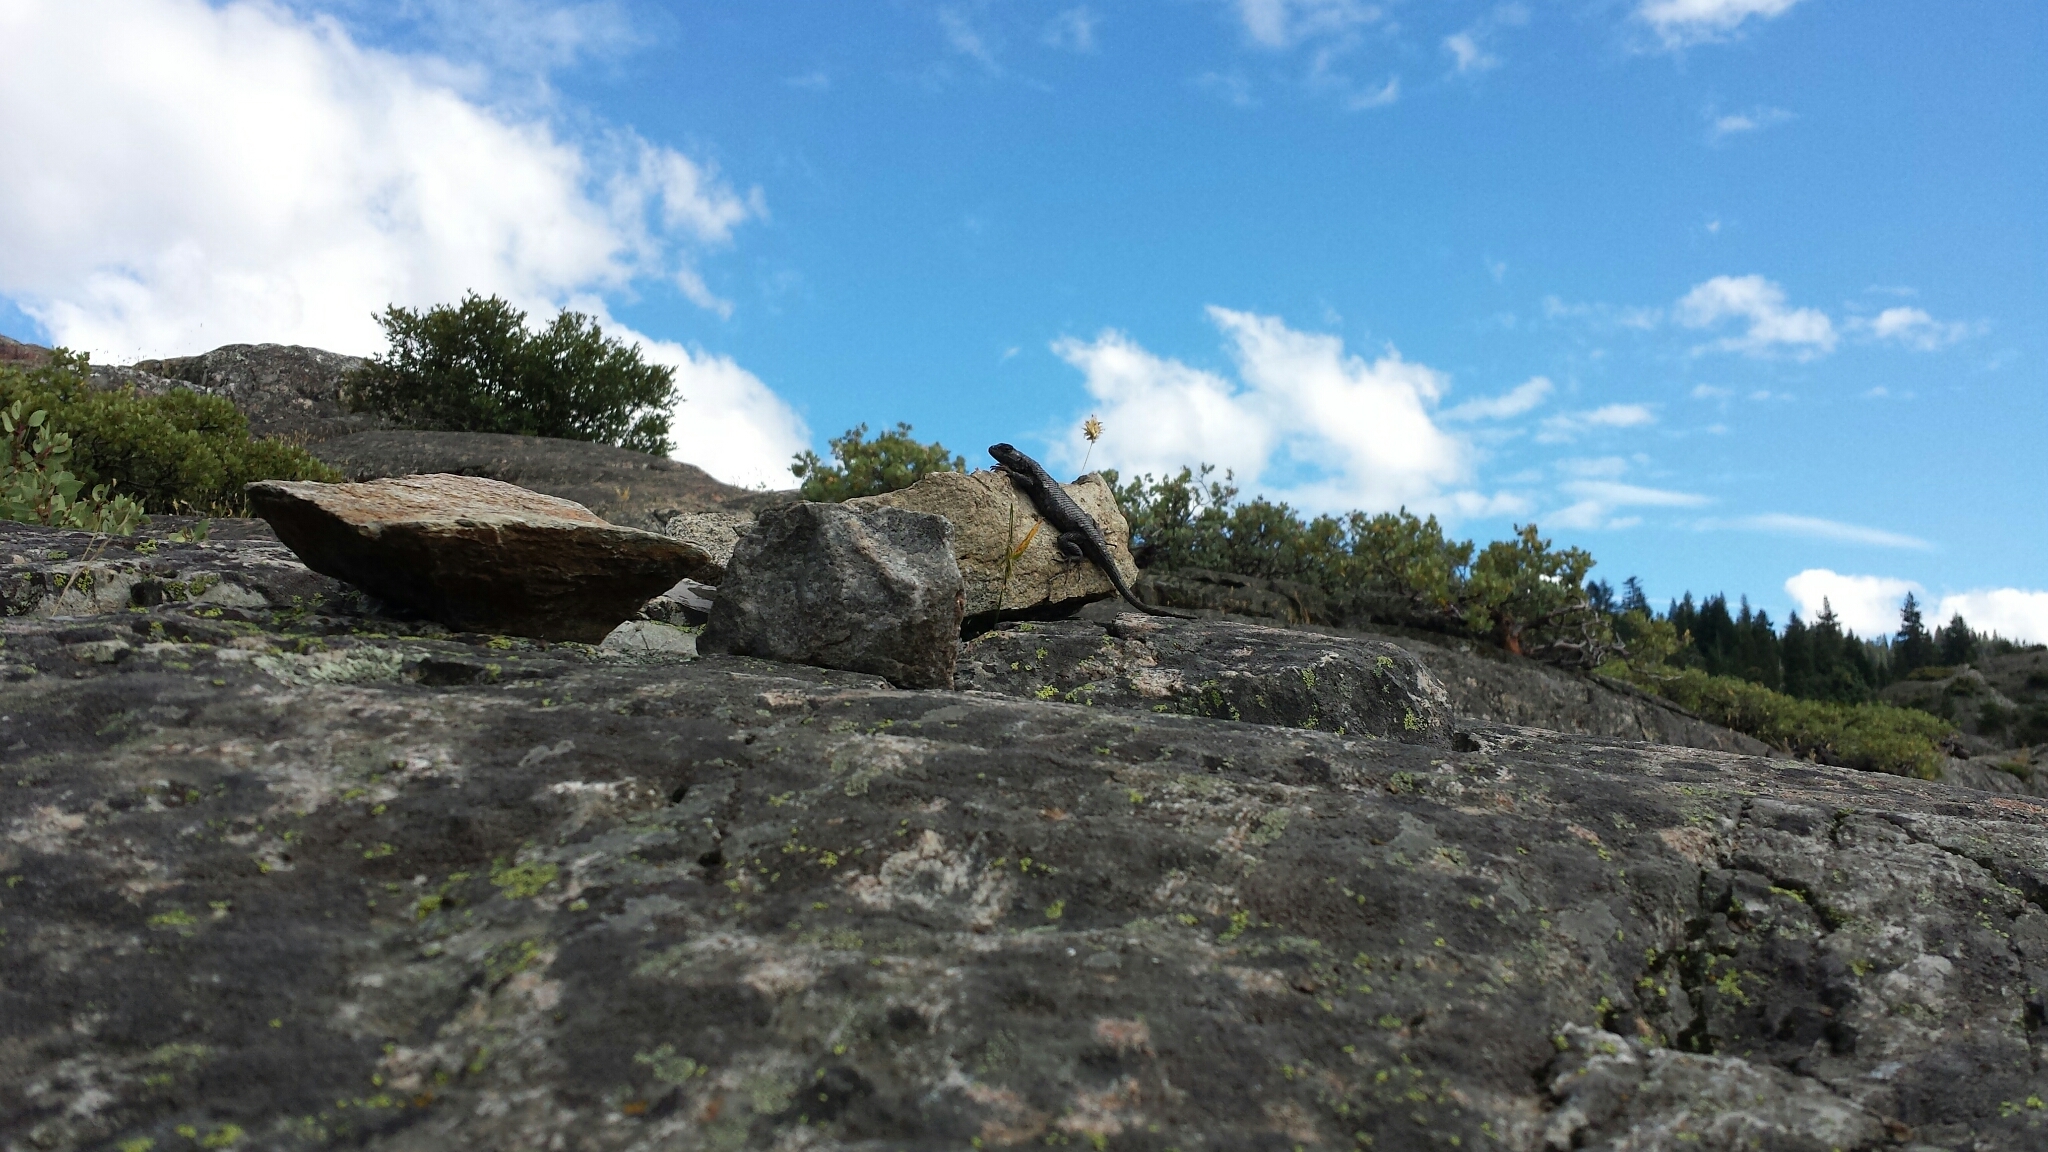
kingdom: Animalia
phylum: Chordata
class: Squamata
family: Phrynosomatidae
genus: Sceloporus
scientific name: Sceloporus occidentalis
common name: Western fence lizard
